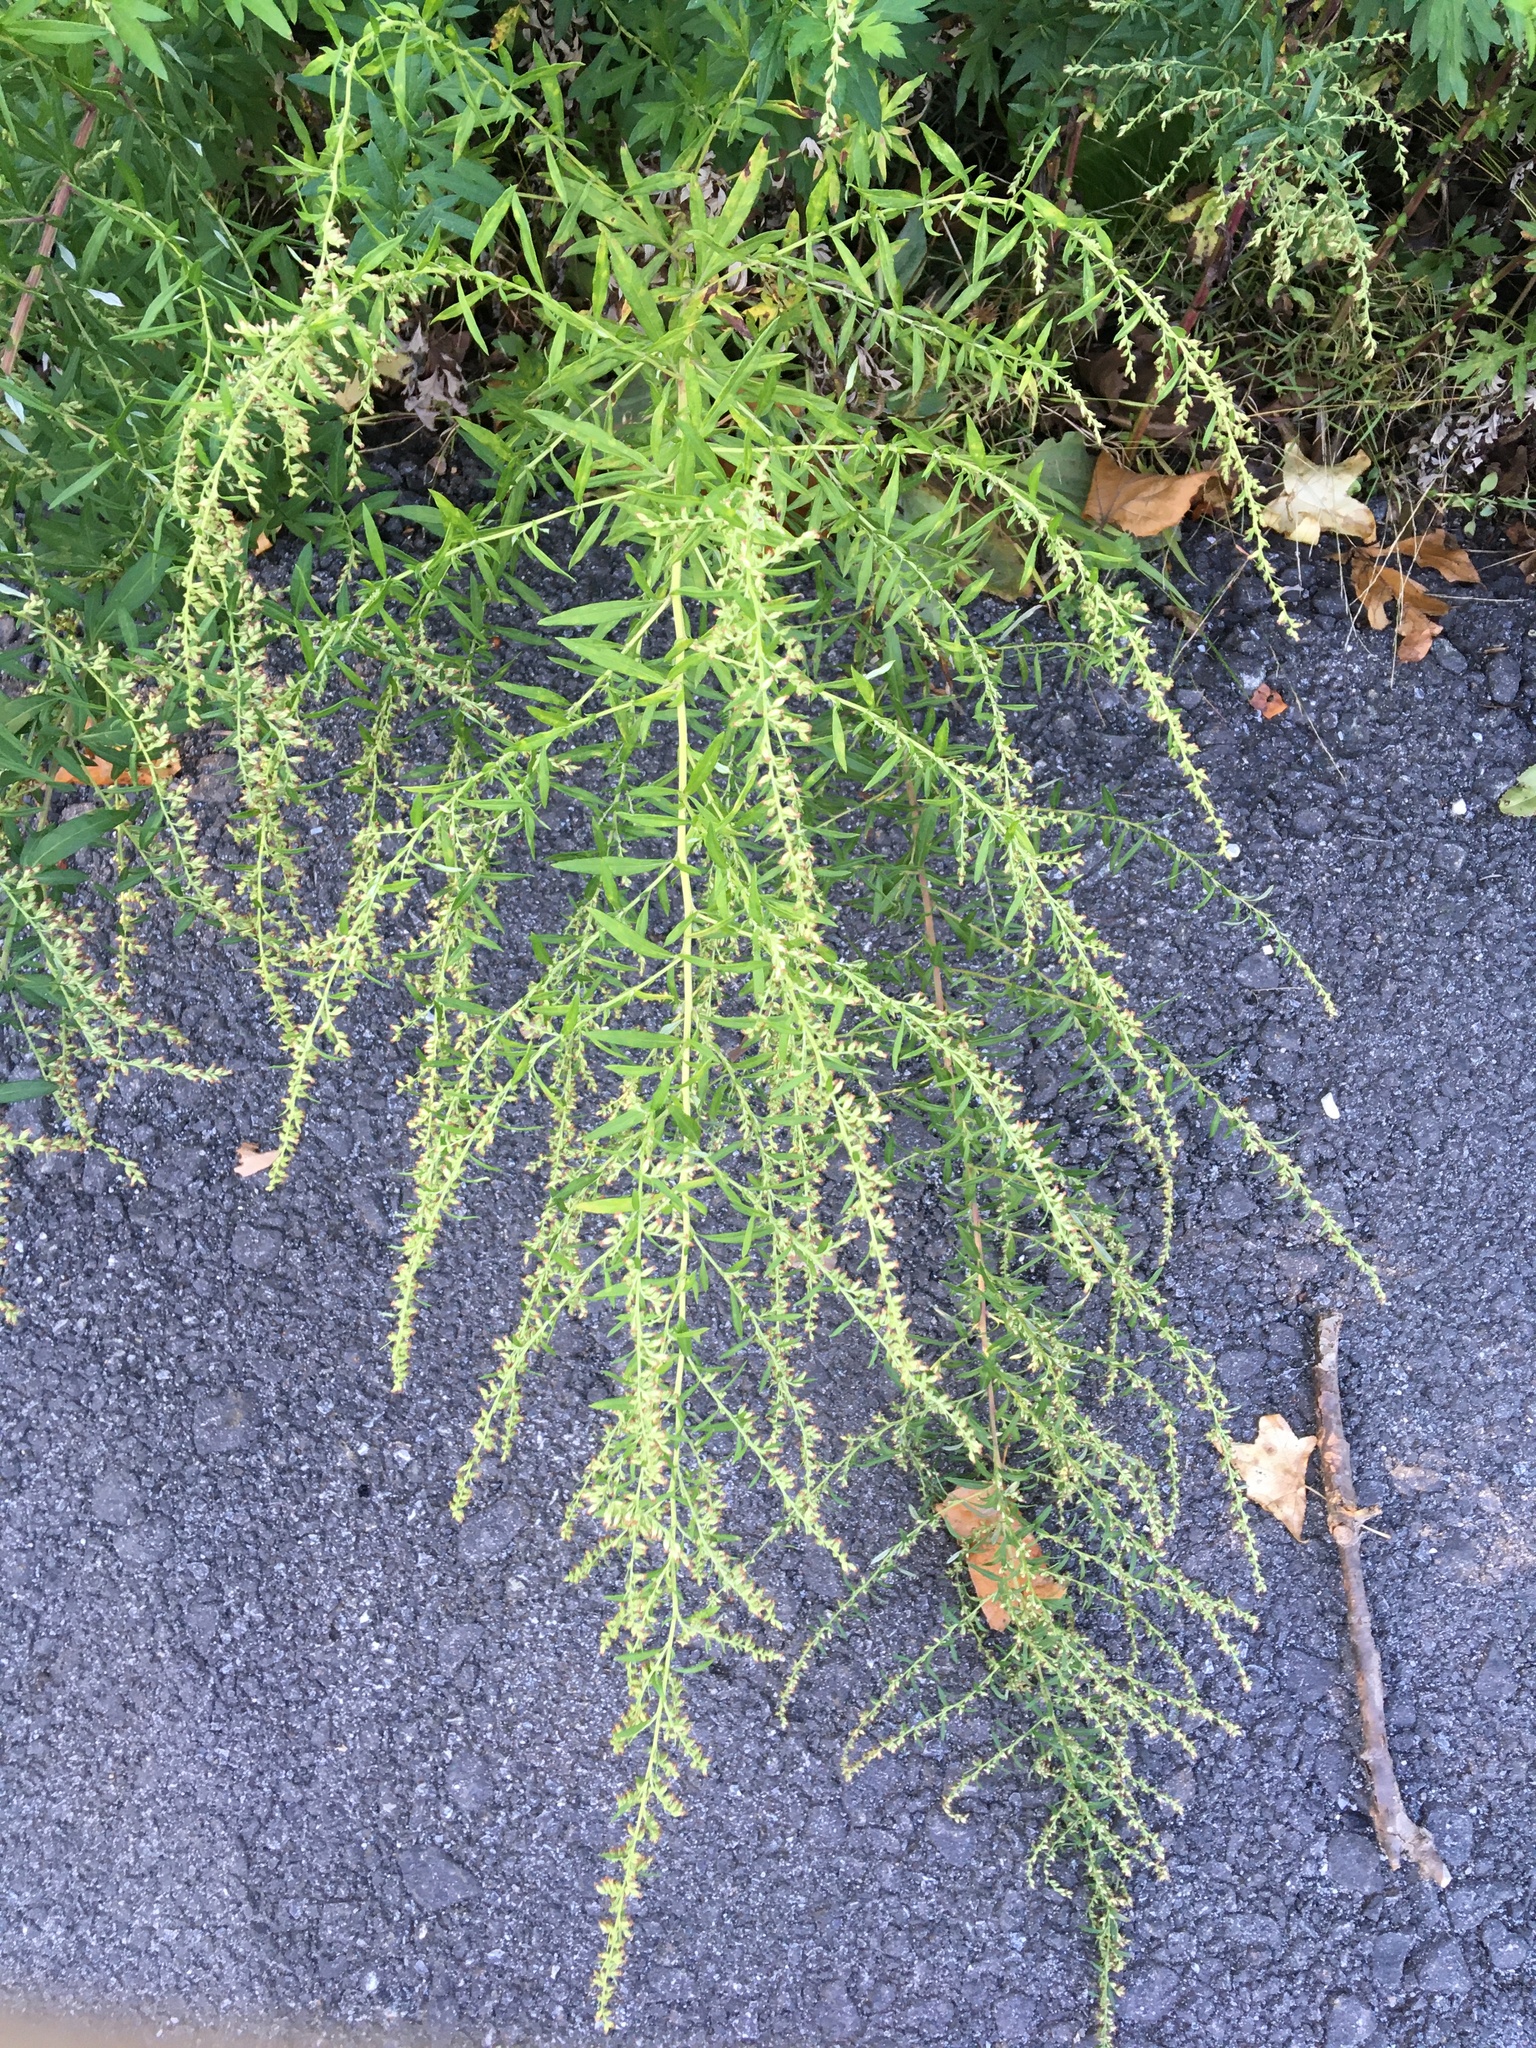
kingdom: Plantae
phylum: Tracheophyta
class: Magnoliopsida
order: Asterales
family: Asteraceae
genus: Artemisia
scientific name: Artemisia vulgaris
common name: Mugwort
